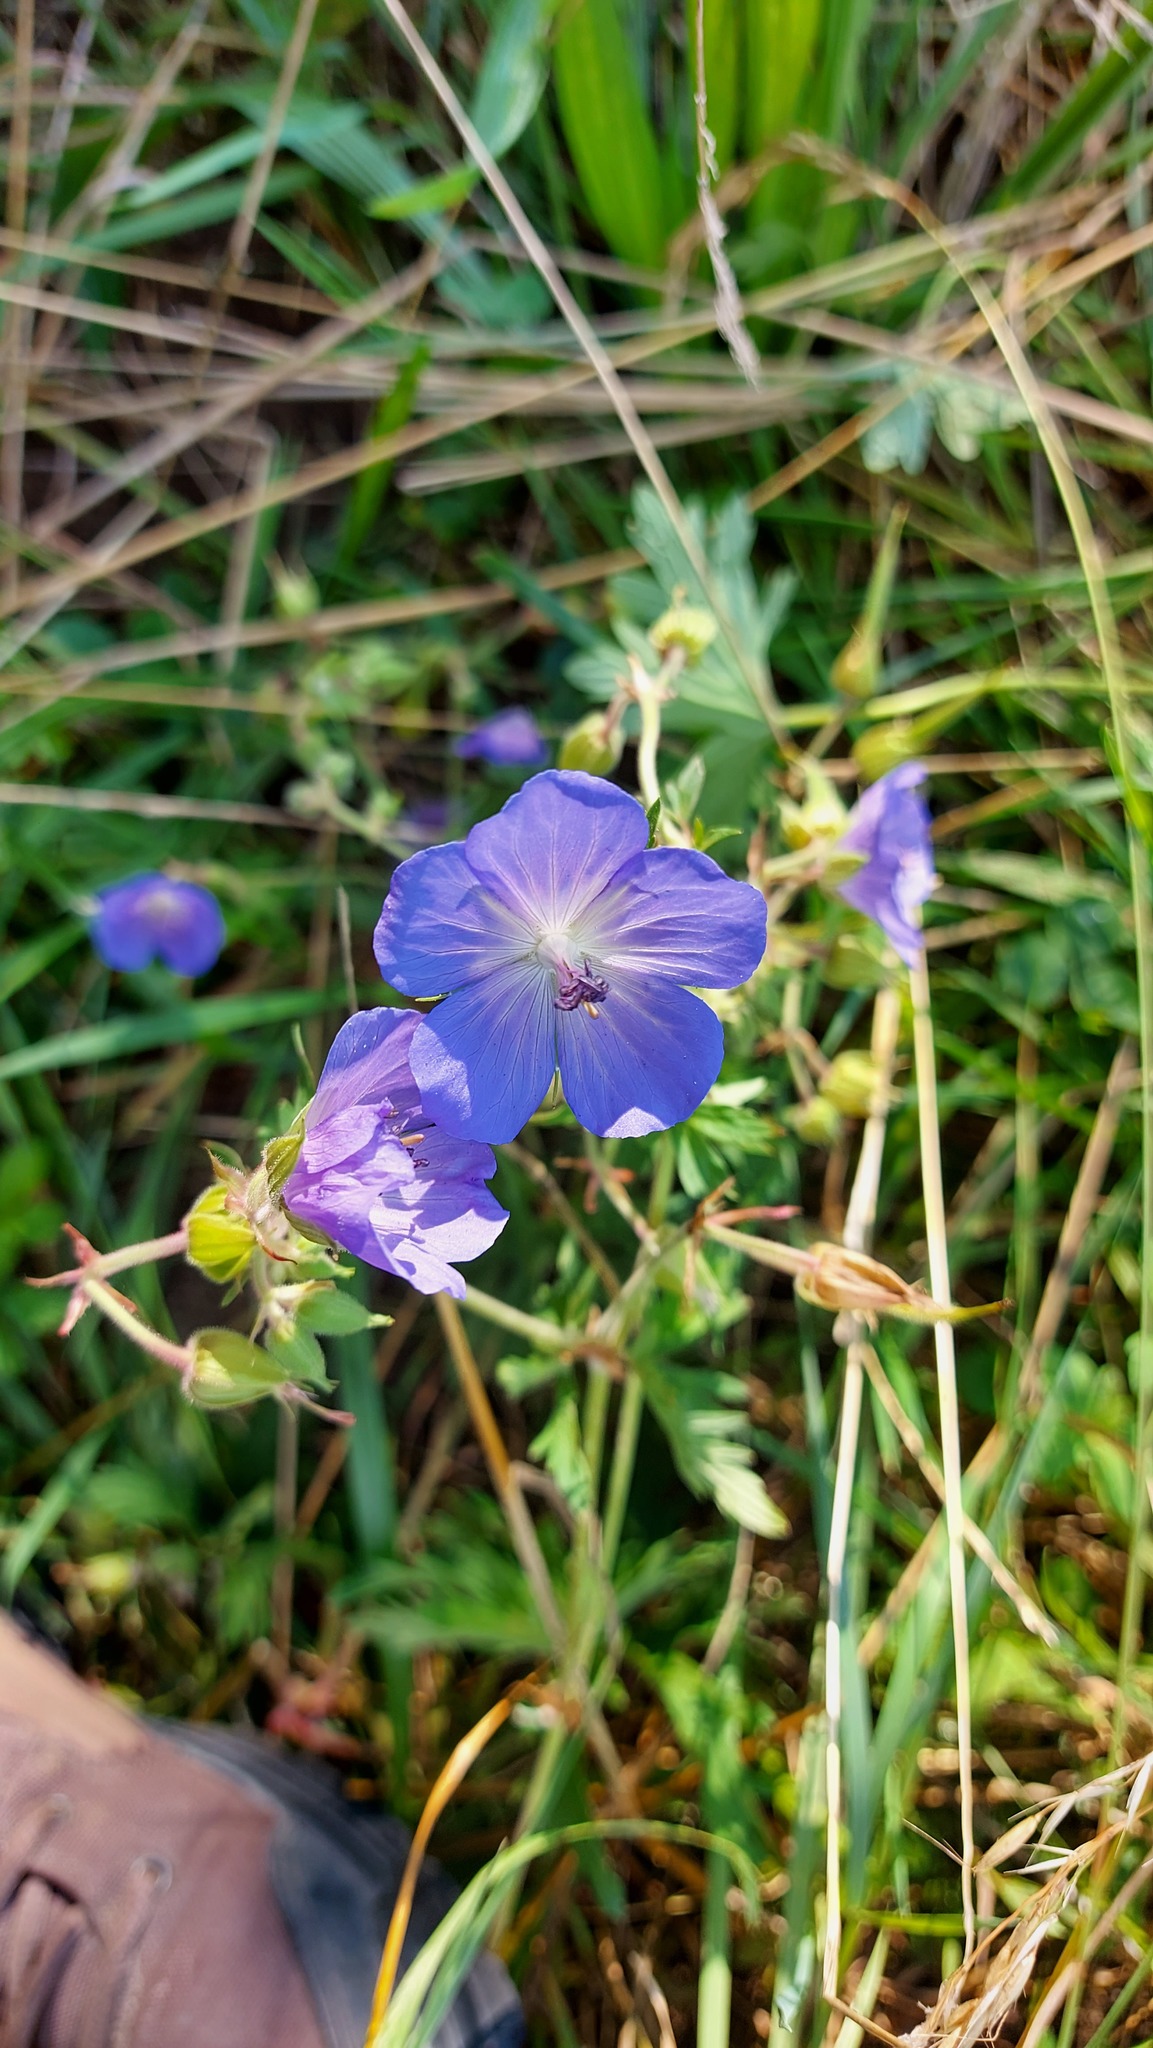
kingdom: Plantae
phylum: Tracheophyta
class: Magnoliopsida
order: Geraniales
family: Geraniaceae
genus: Geranium
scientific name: Geranium pratense
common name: Meadow crane's-bill
